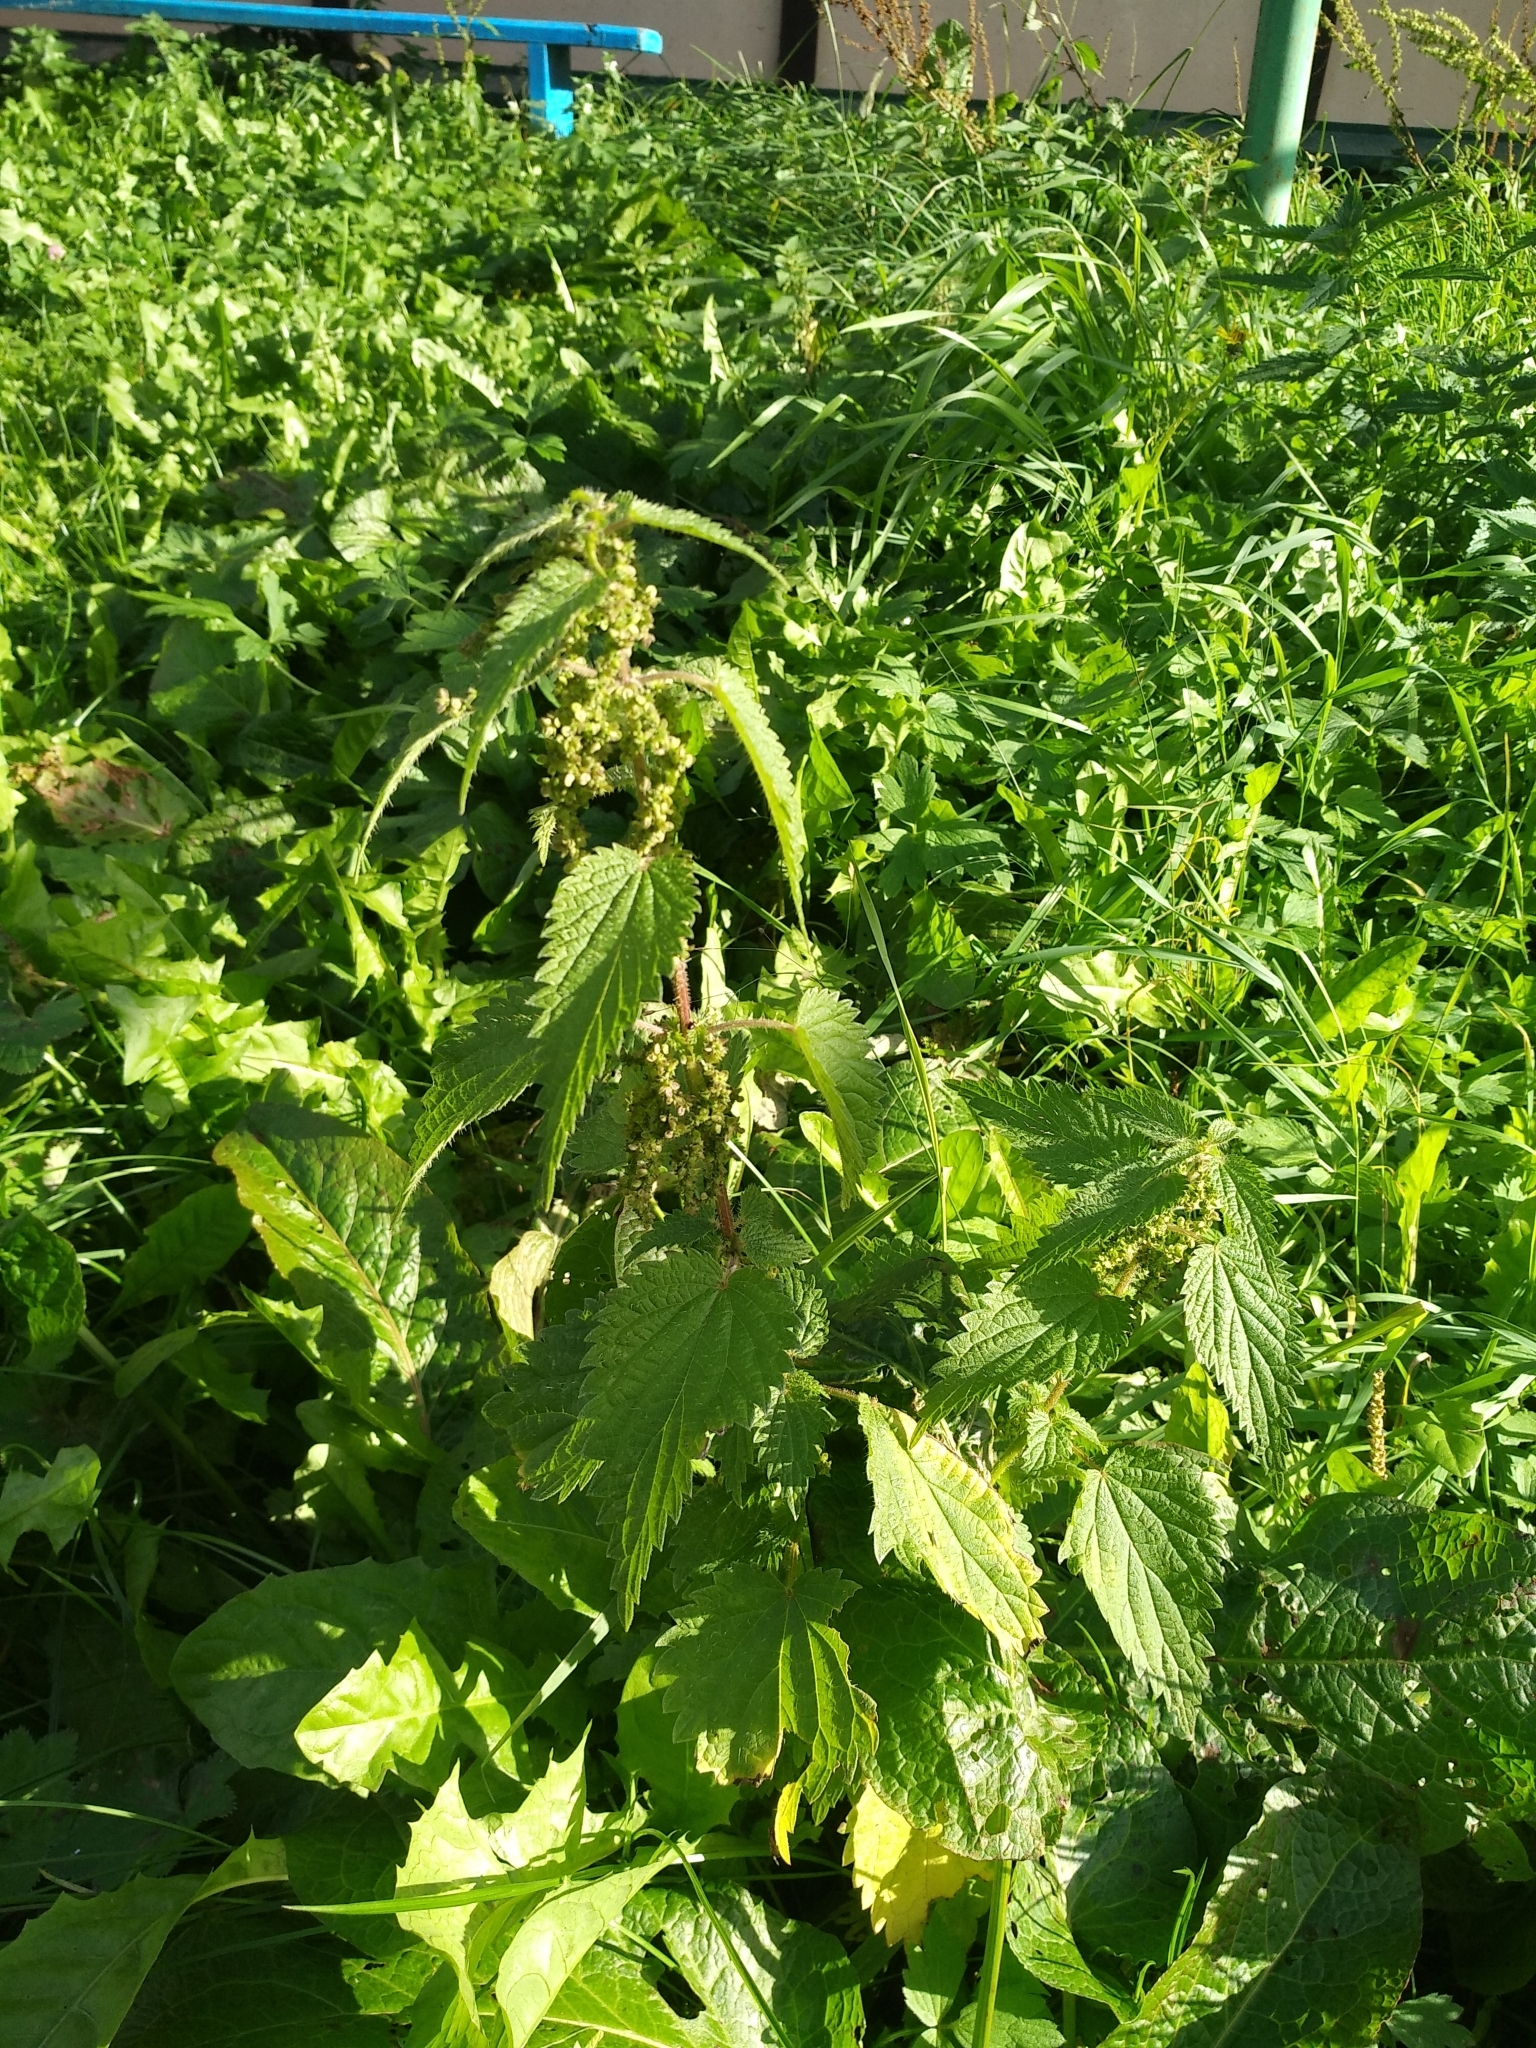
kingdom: Plantae
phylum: Tracheophyta
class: Magnoliopsida
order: Rosales
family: Urticaceae
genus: Urtica
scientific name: Urtica dioica
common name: Common nettle
